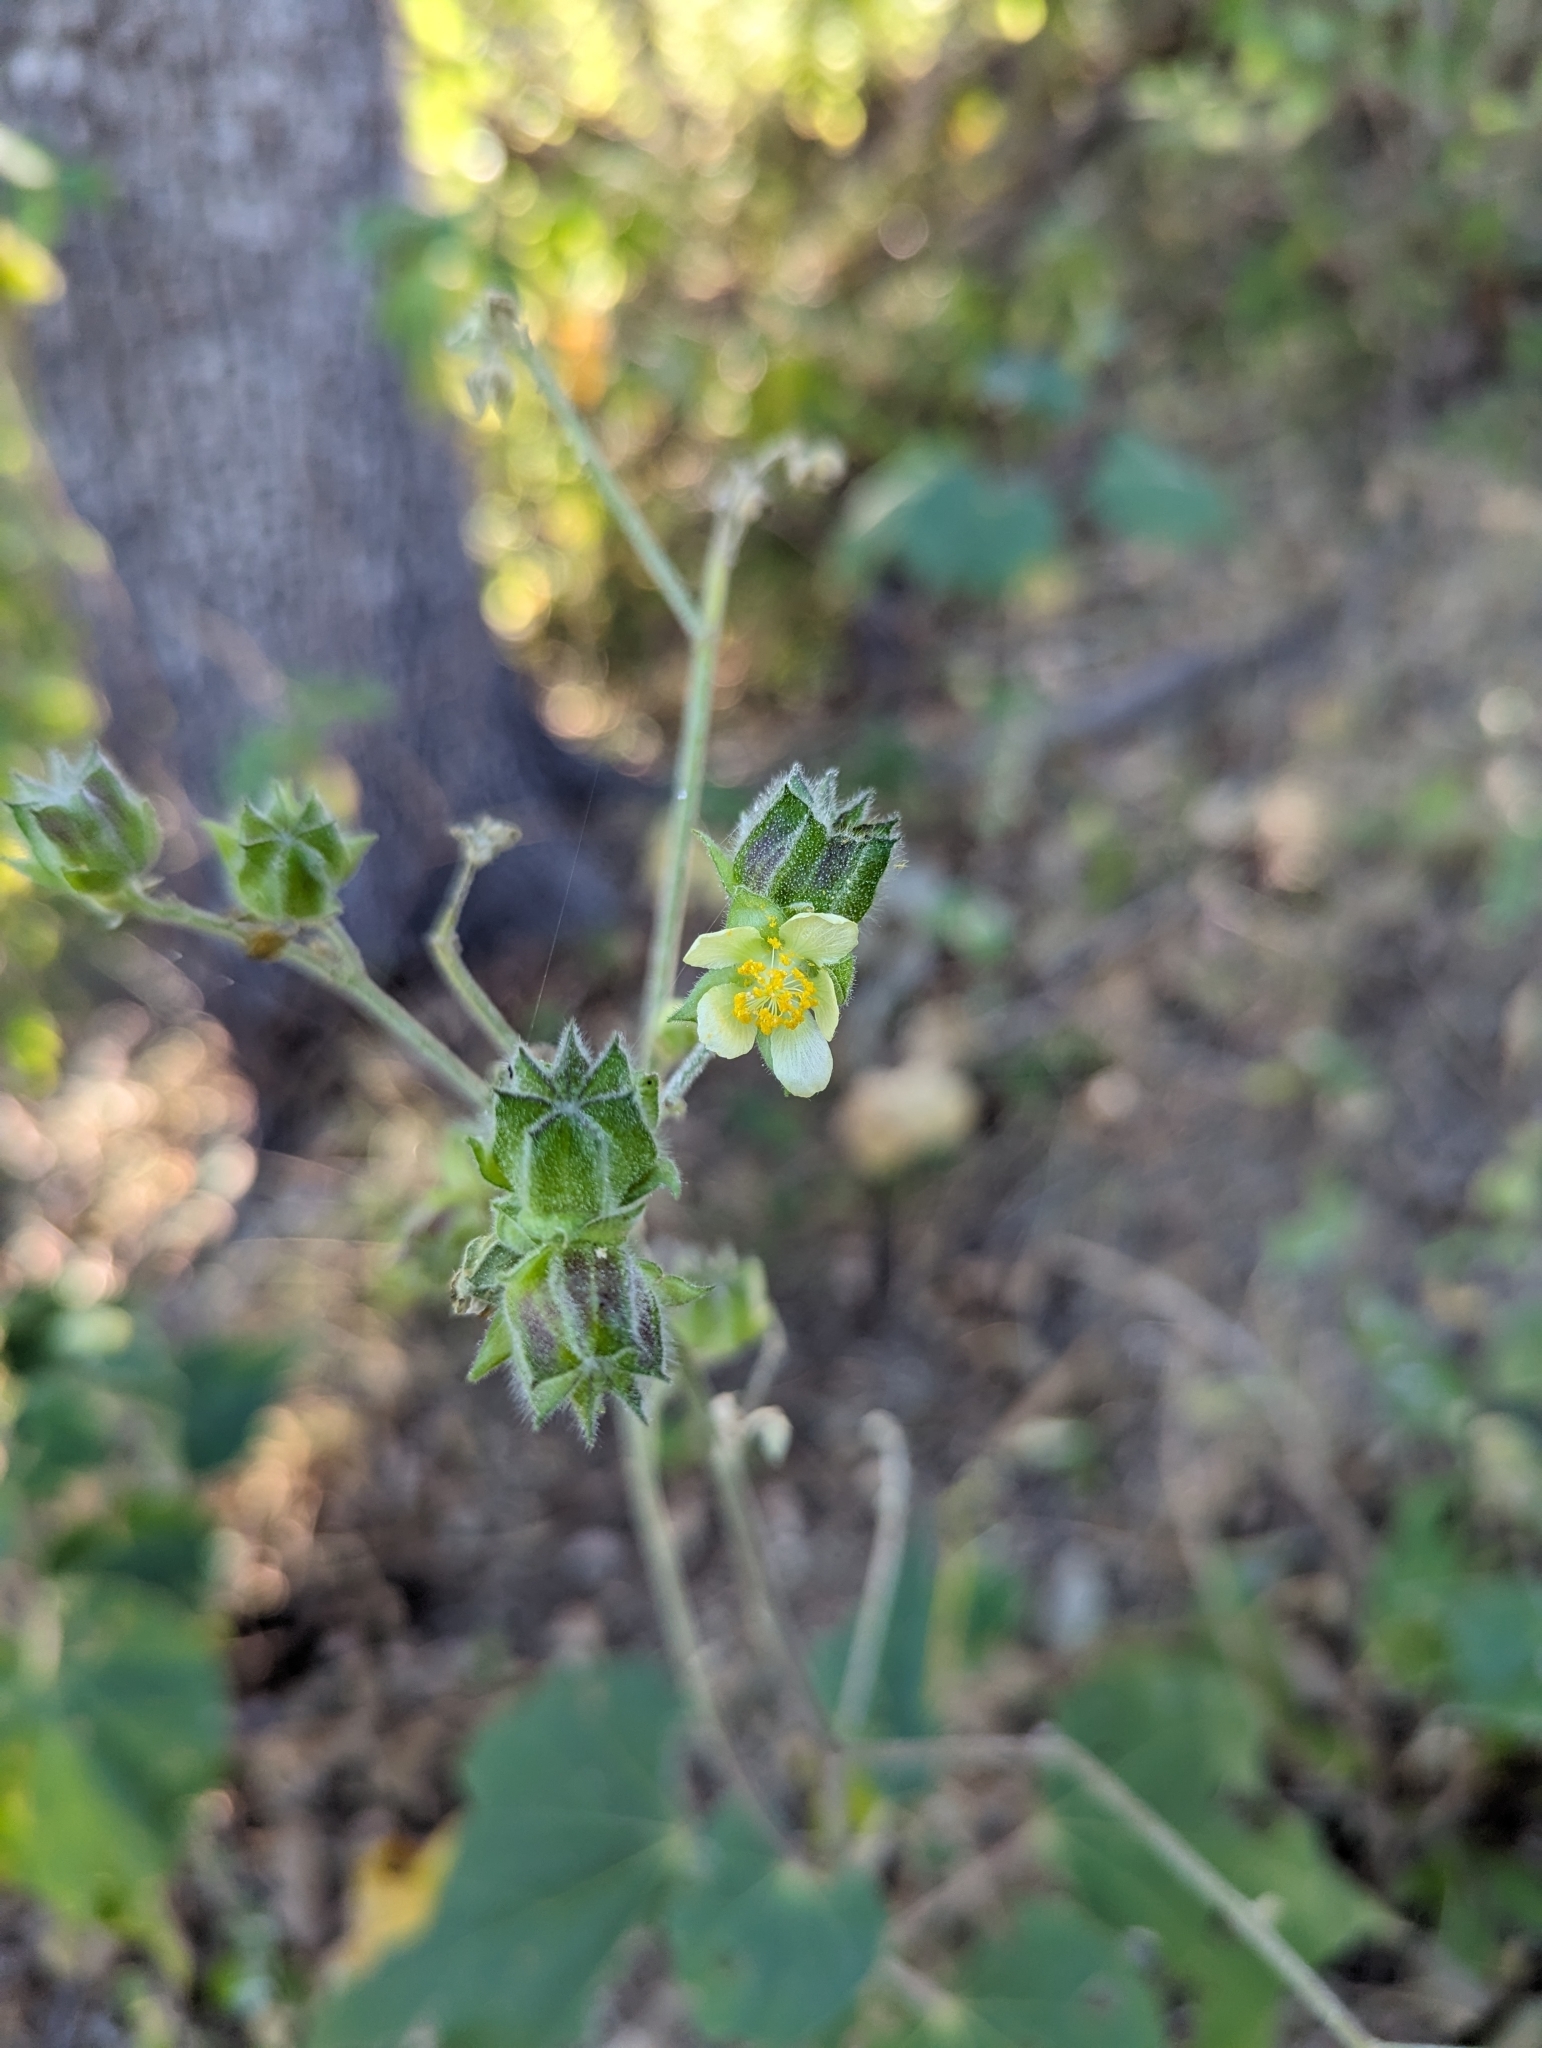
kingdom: Plantae
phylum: Tracheophyta
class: Magnoliopsida
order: Malvales
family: Malvaceae
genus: Abutilon
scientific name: Abutilon xanti
